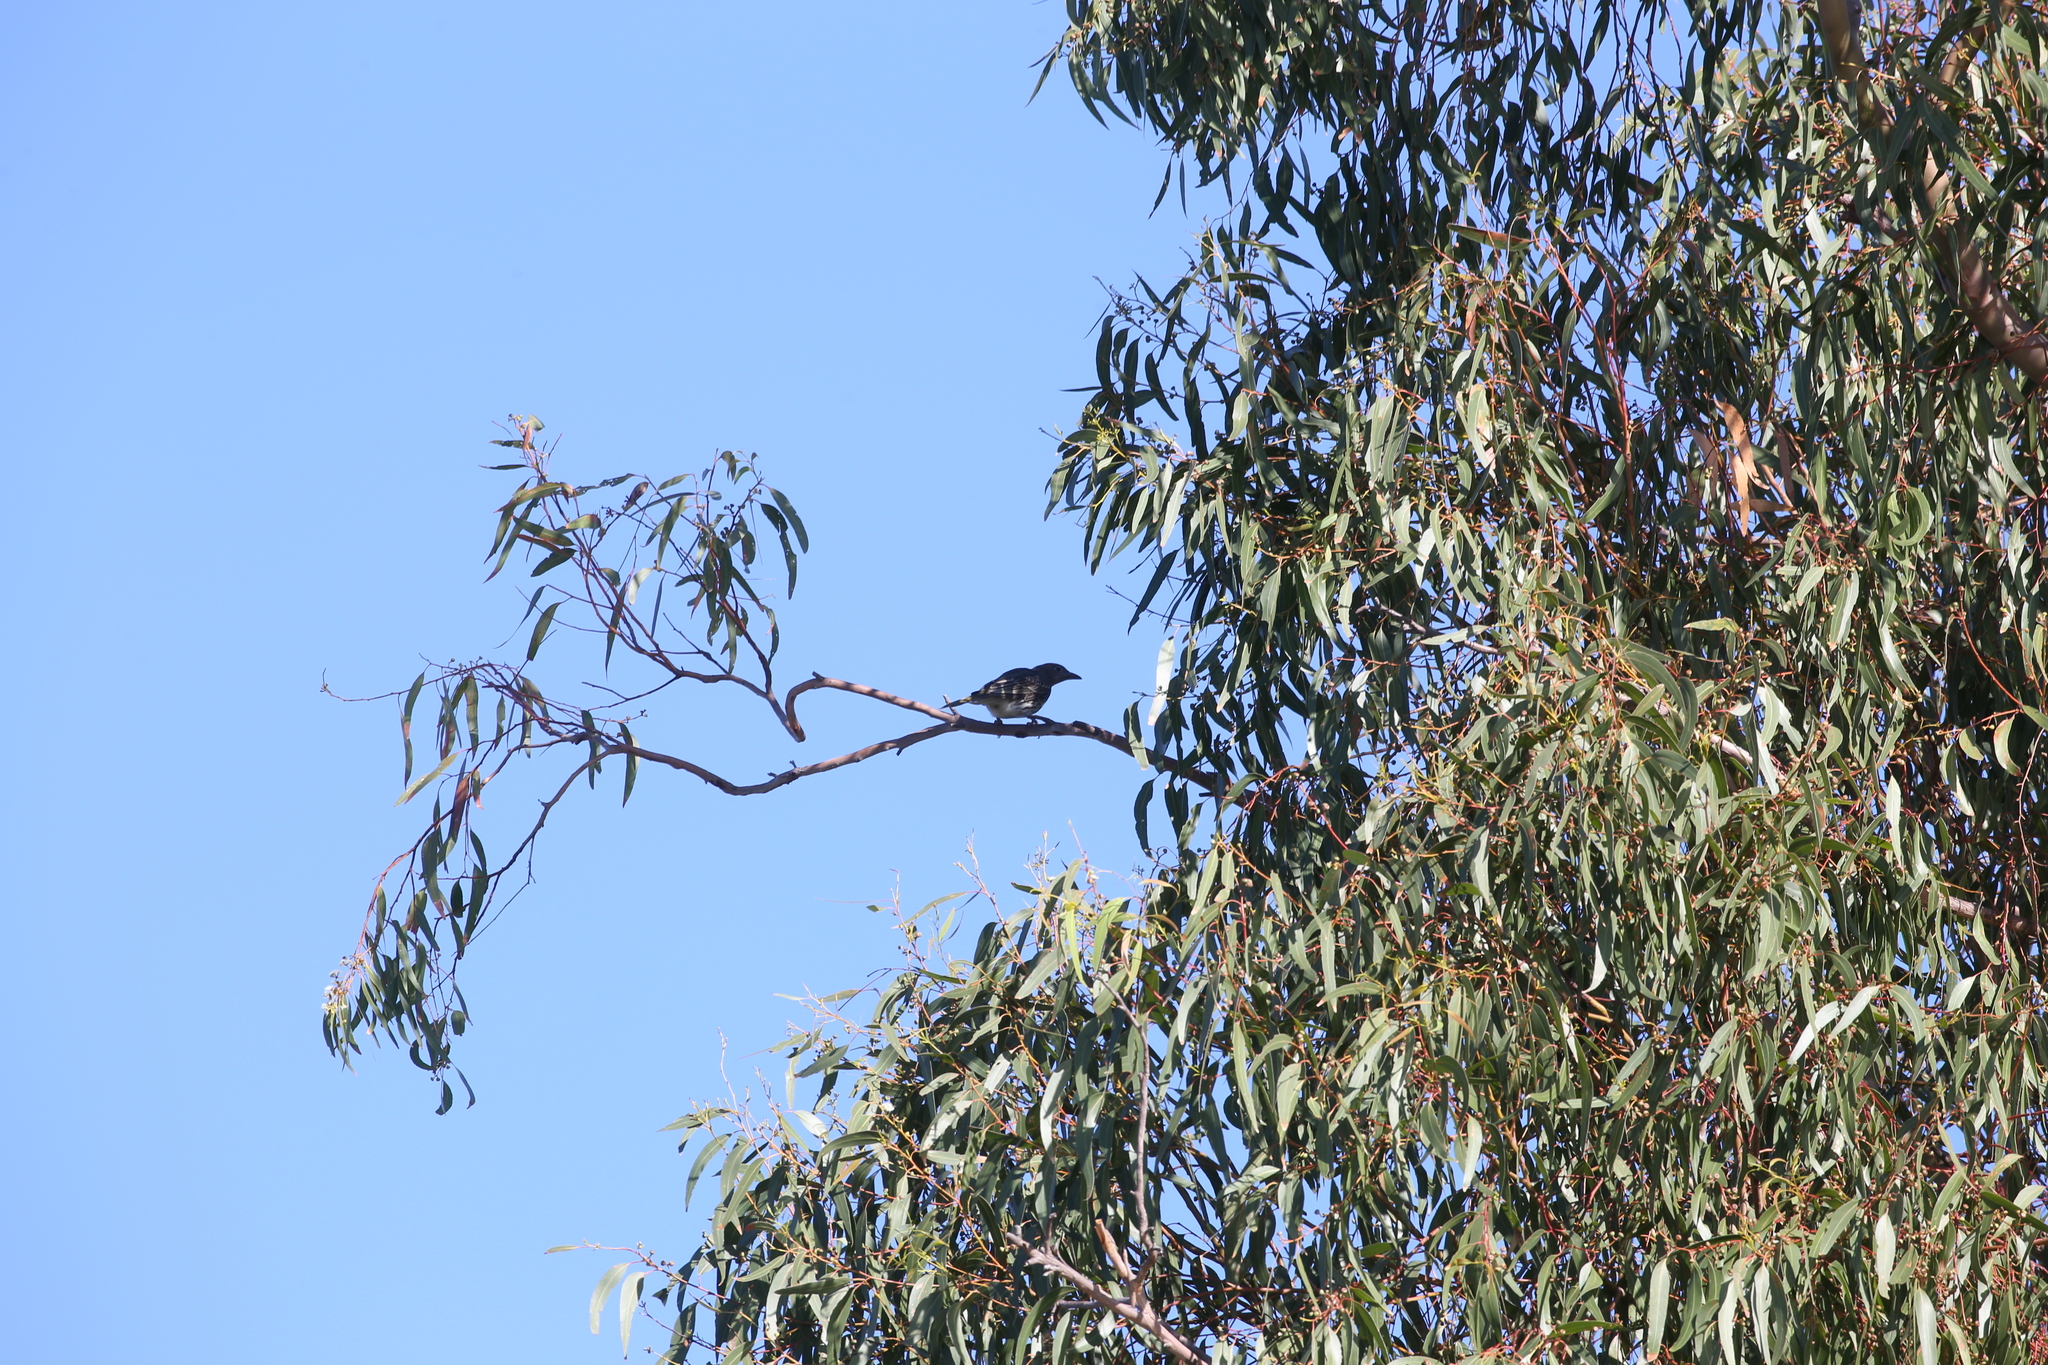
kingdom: Animalia
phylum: Chordata
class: Aves
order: Passeriformes
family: Oriolidae
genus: Sphecotheres
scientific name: Sphecotheres vieilloti
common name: Australasian figbird
